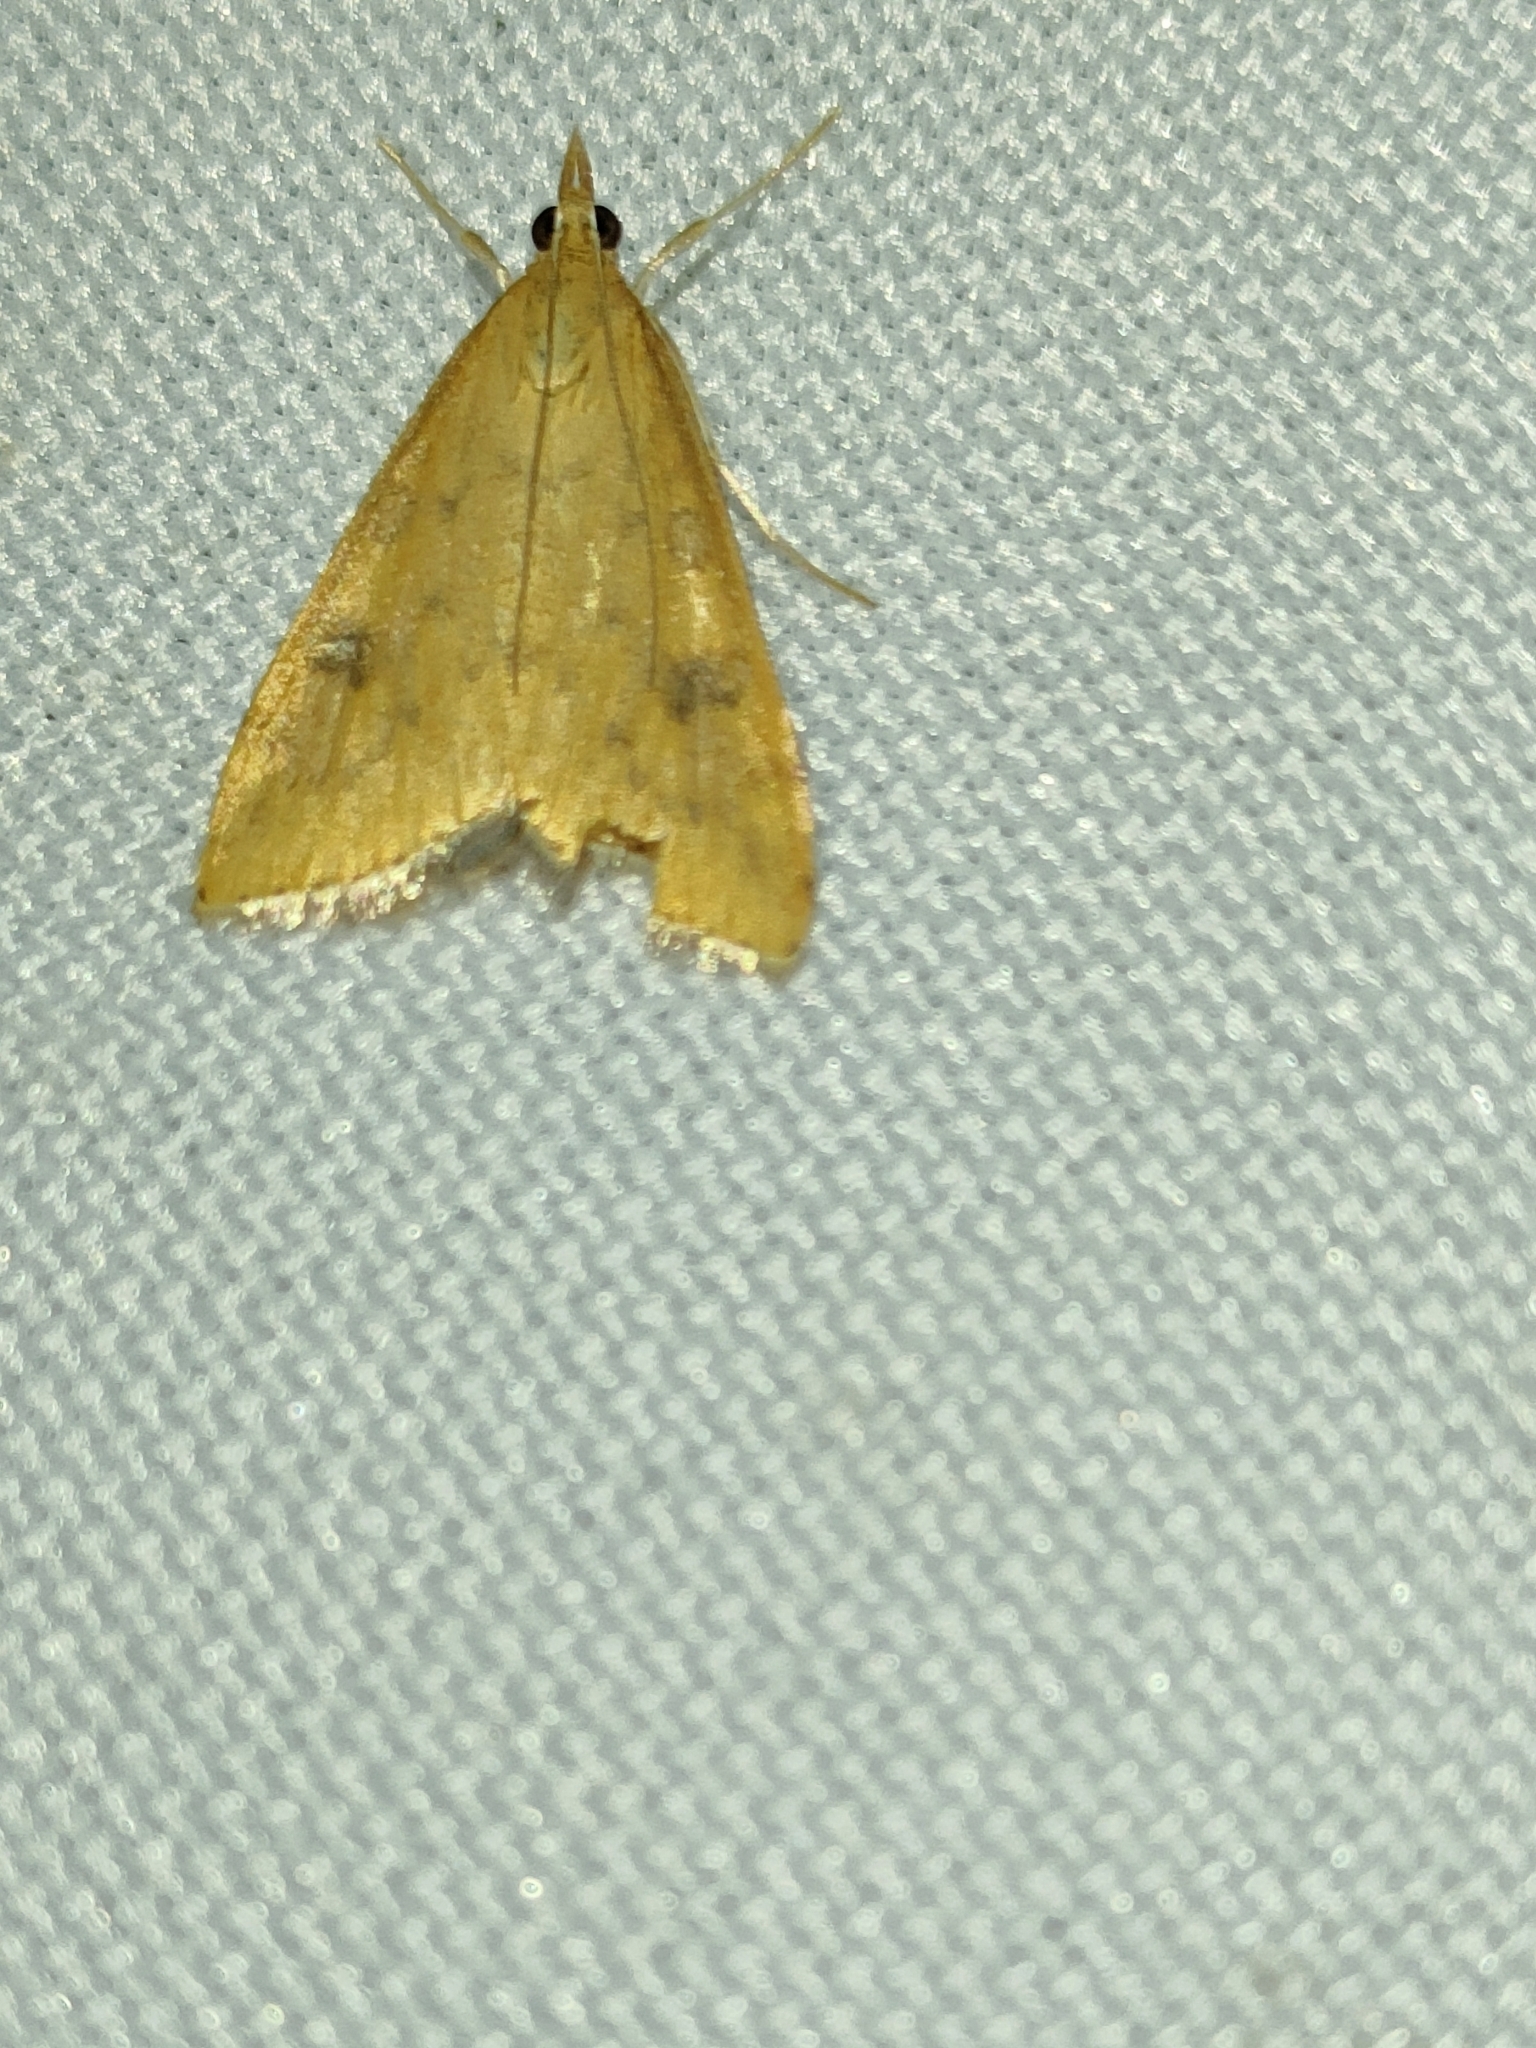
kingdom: Animalia
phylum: Arthropoda
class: Insecta
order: Lepidoptera
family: Crambidae
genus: Udea
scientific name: Udea ferrugalis
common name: Rusty dot
